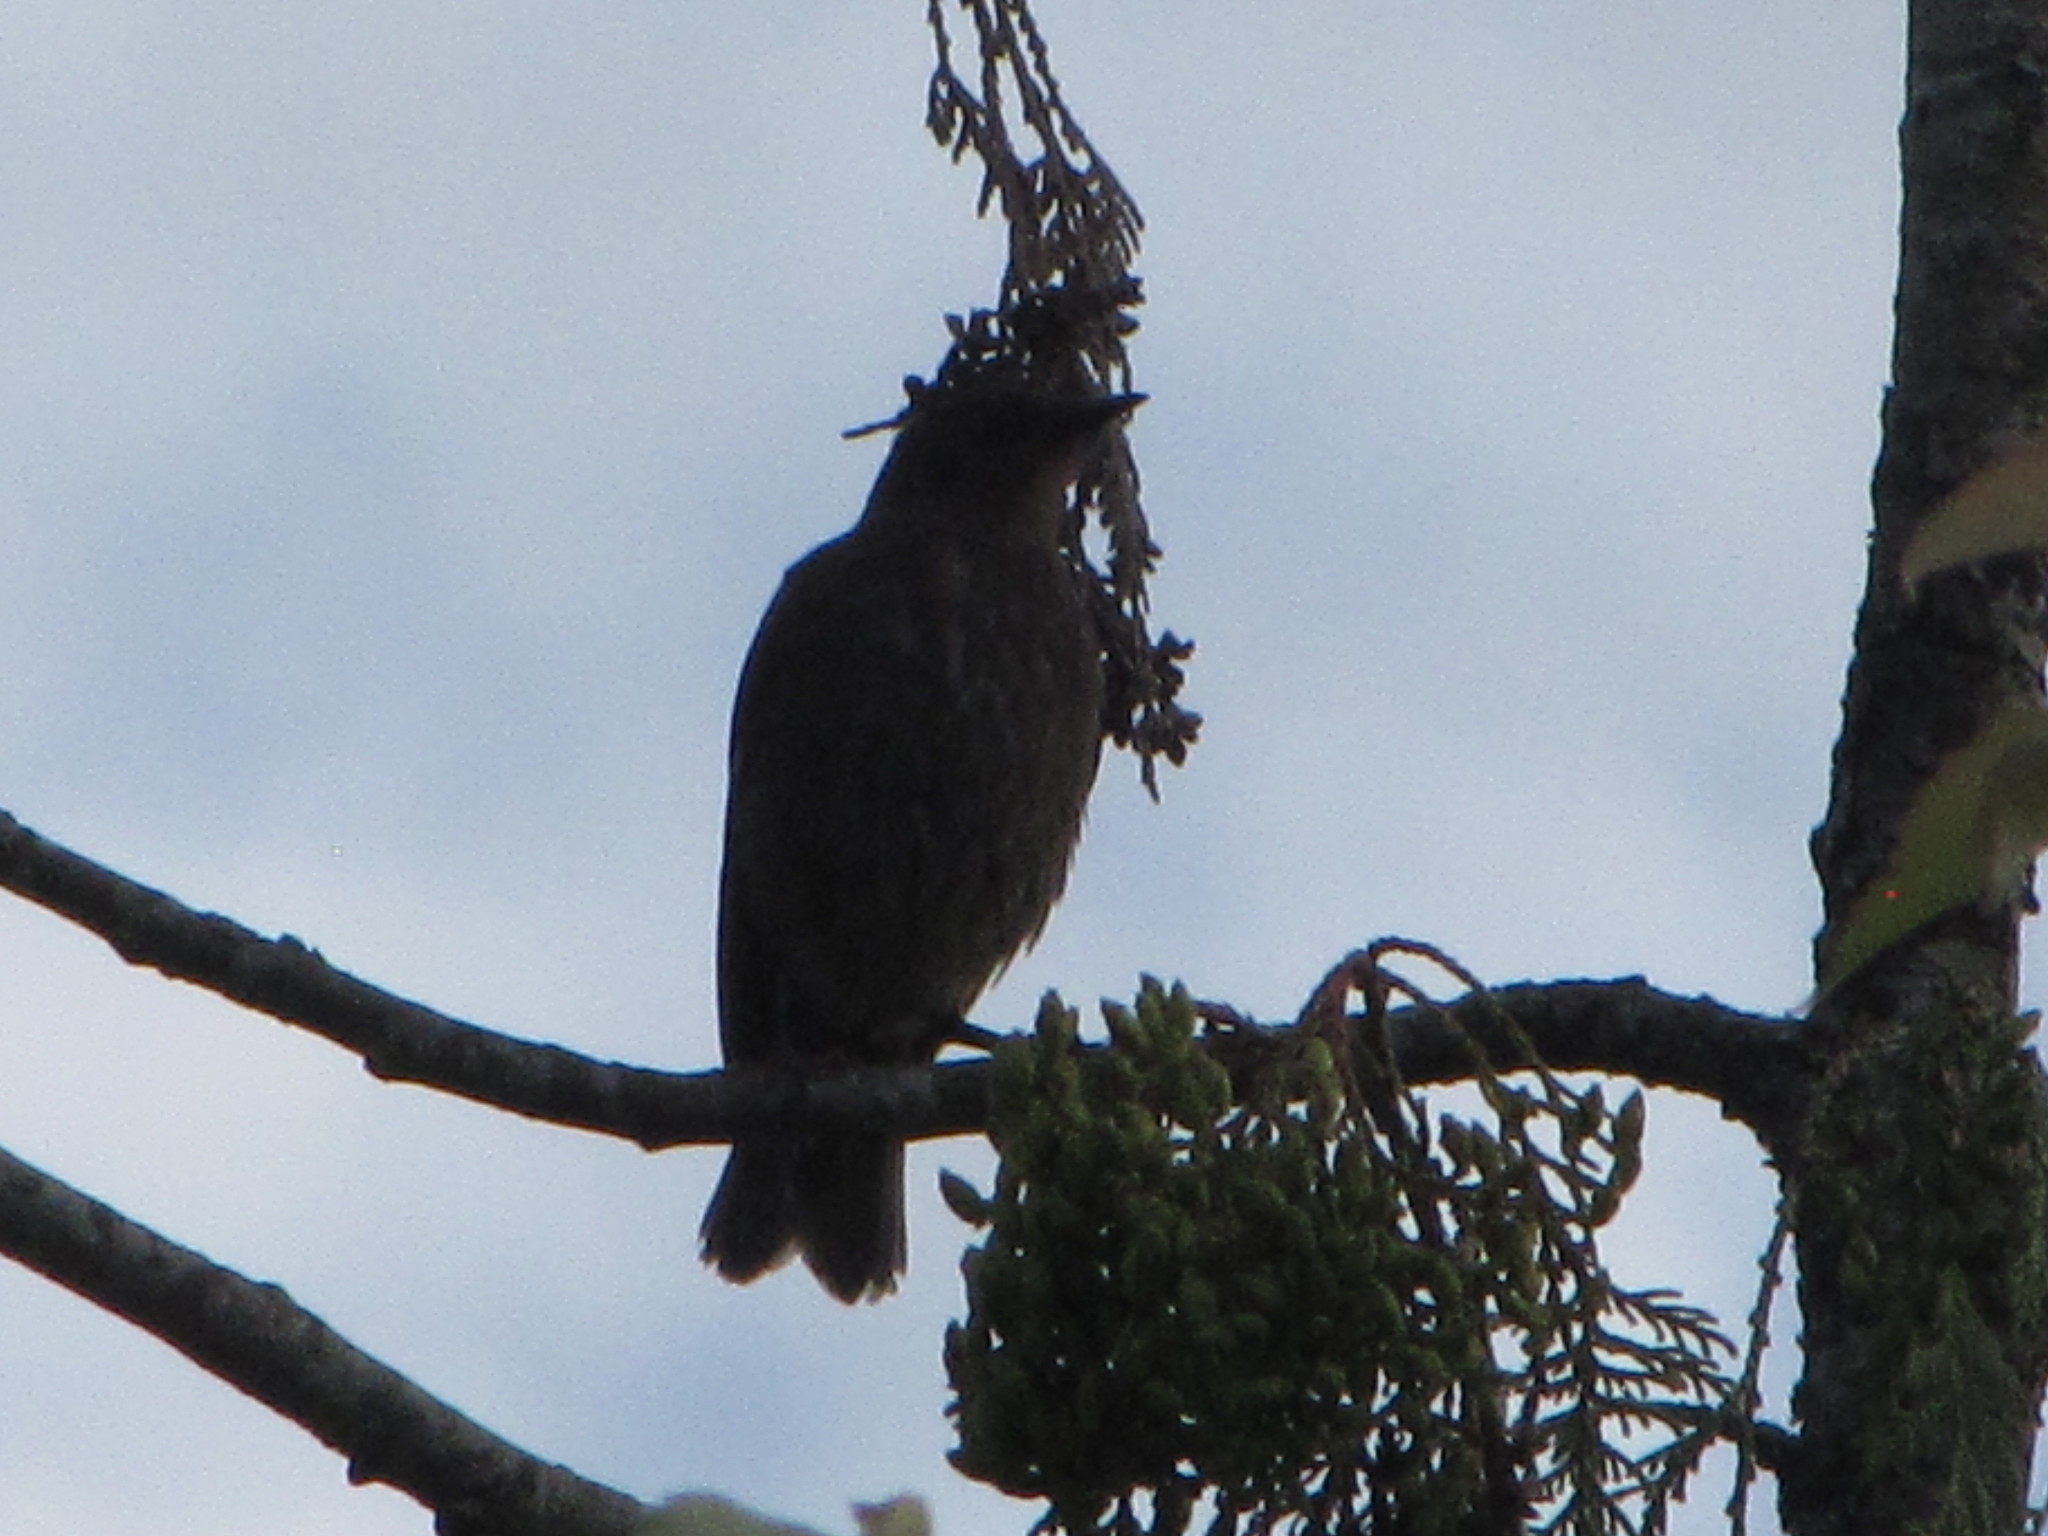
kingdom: Animalia
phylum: Chordata
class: Aves
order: Passeriformes
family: Icteridae
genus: Agelaius
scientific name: Agelaius phoeniceus
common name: Red-winged blackbird
